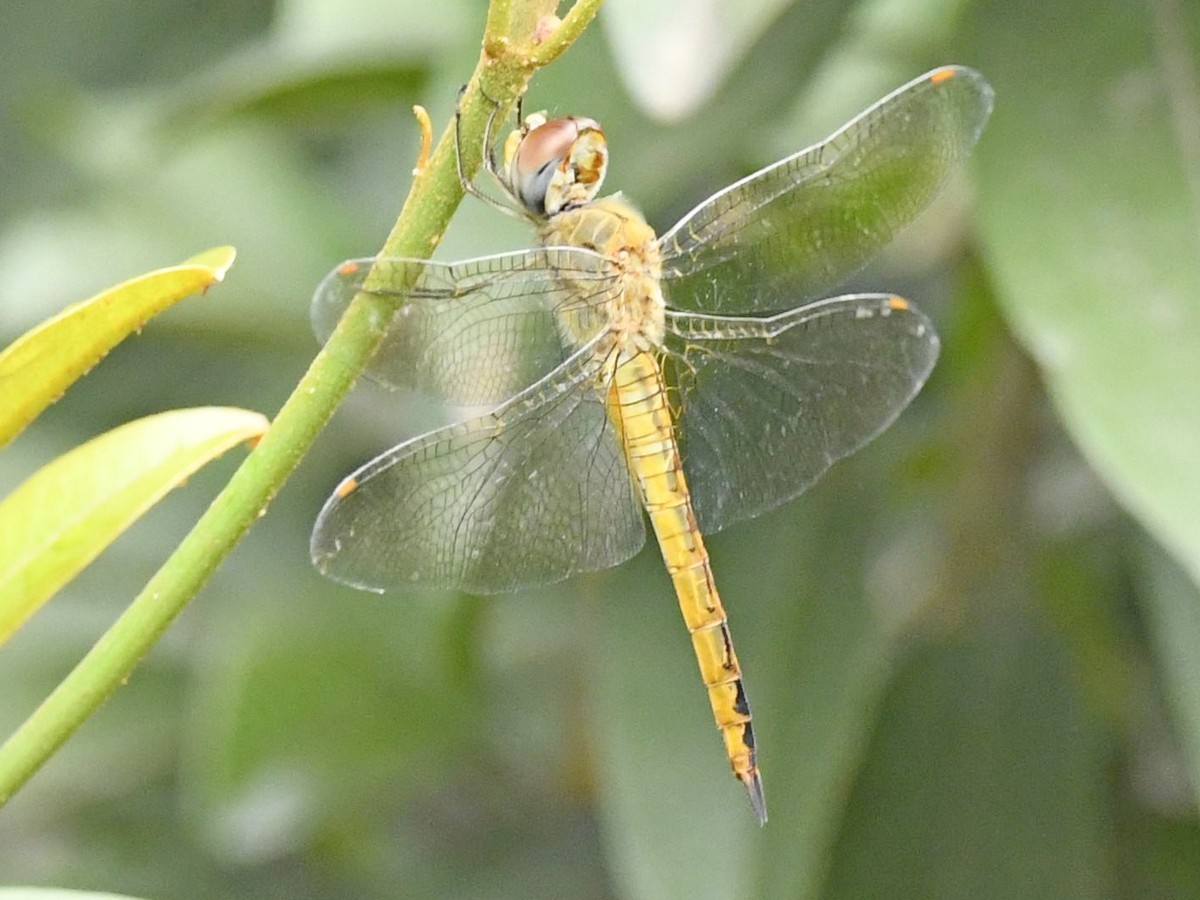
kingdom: Animalia
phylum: Arthropoda
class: Insecta
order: Odonata
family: Libellulidae
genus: Pantala
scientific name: Pantala flavescens
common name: Wandering glider
